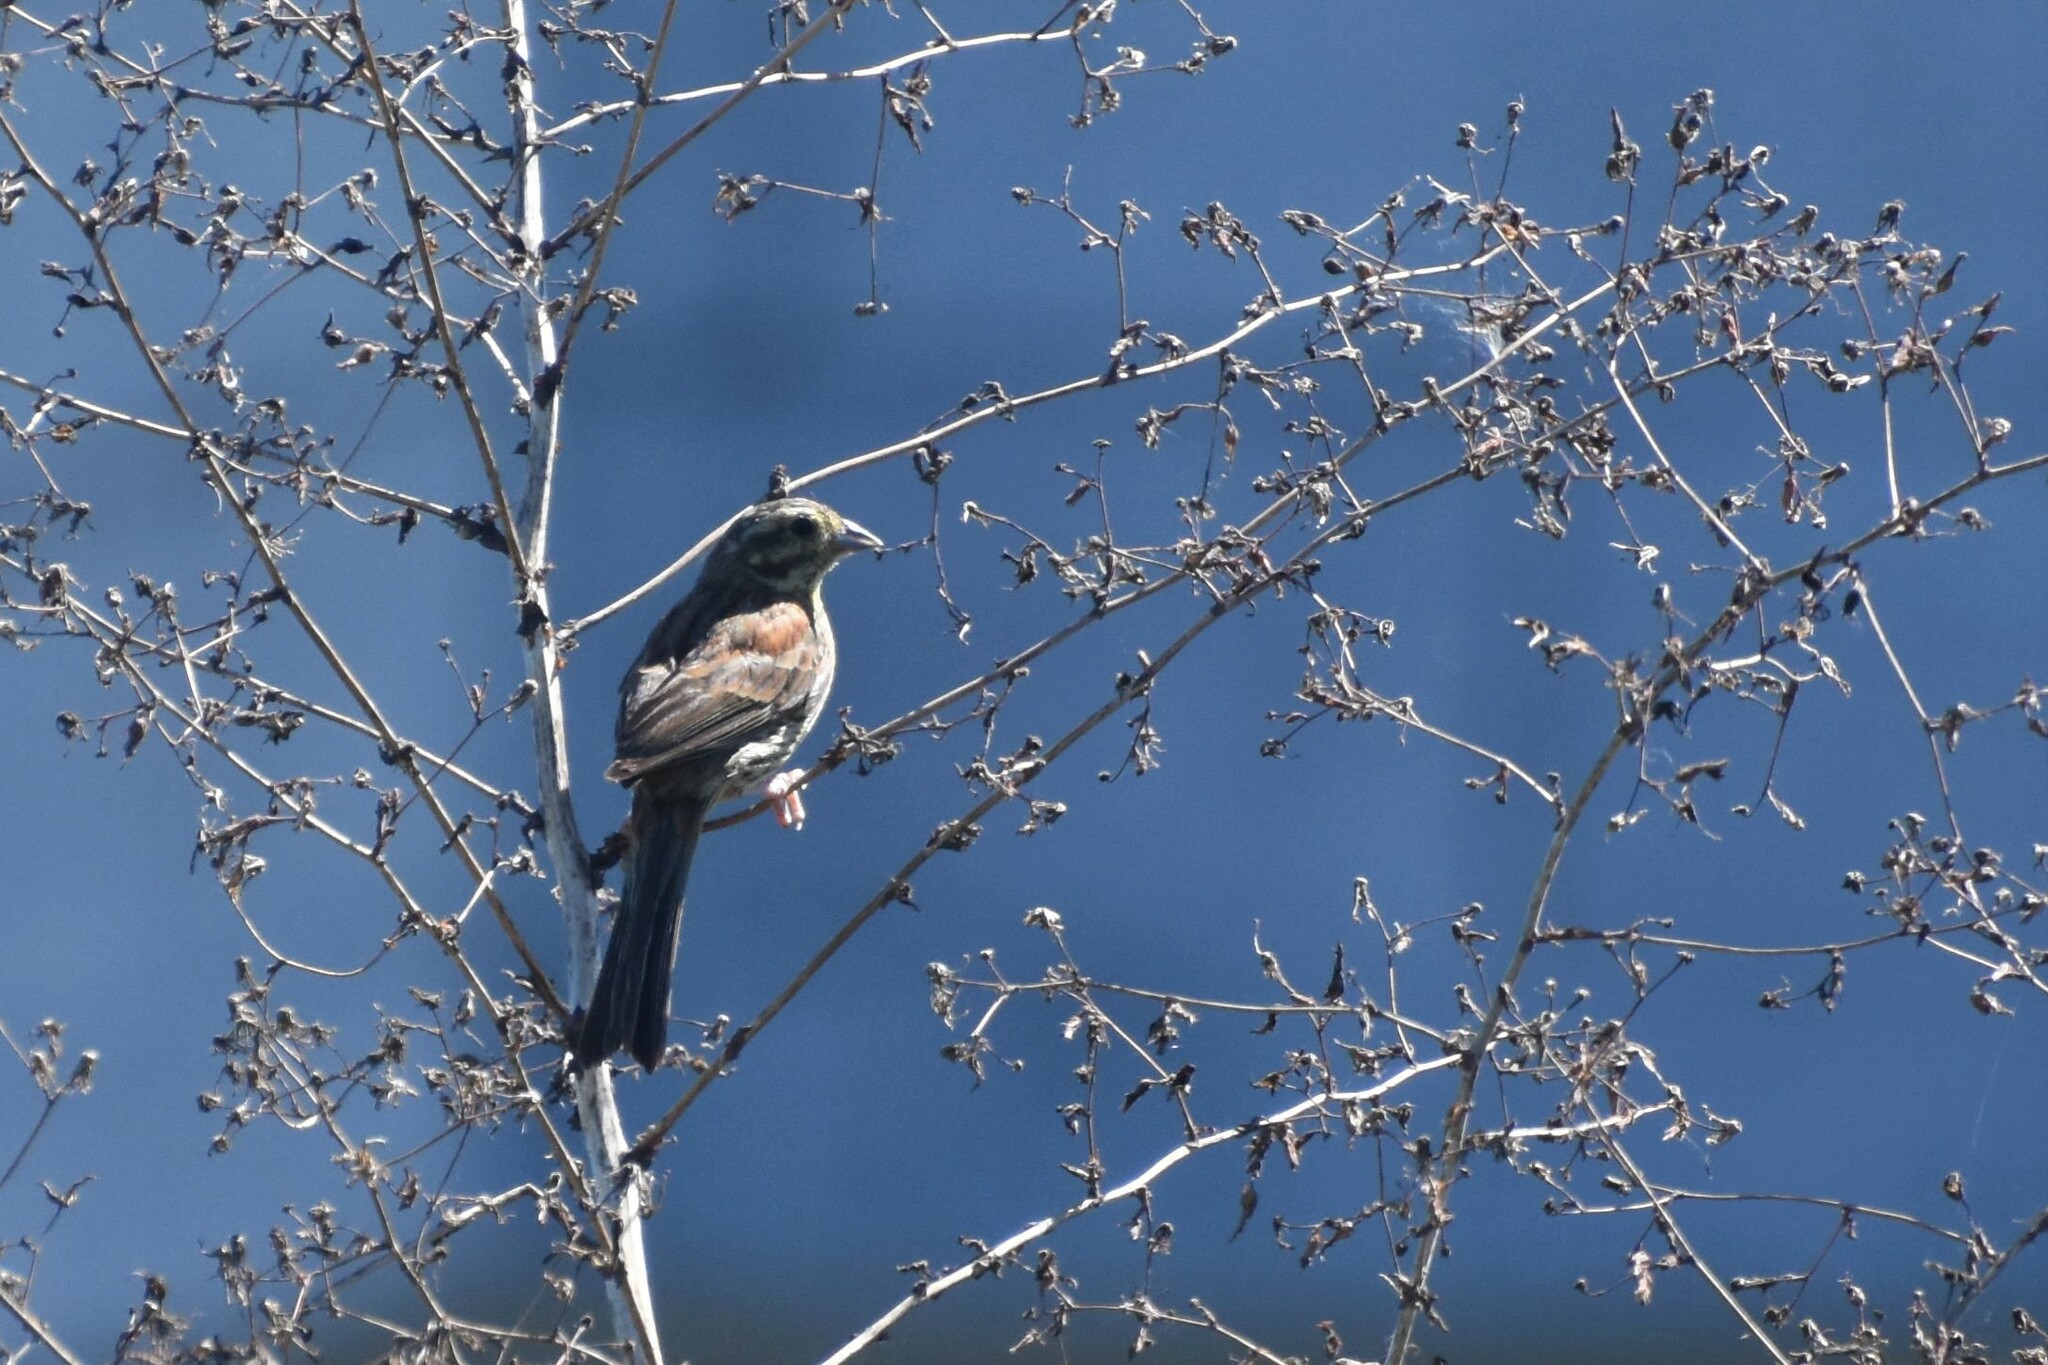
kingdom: Animalia
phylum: Chordata
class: Aves
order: Passeriformes
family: Emberizidae
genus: Emberiza
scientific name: Emberiza cirlus
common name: Cirl bunting
